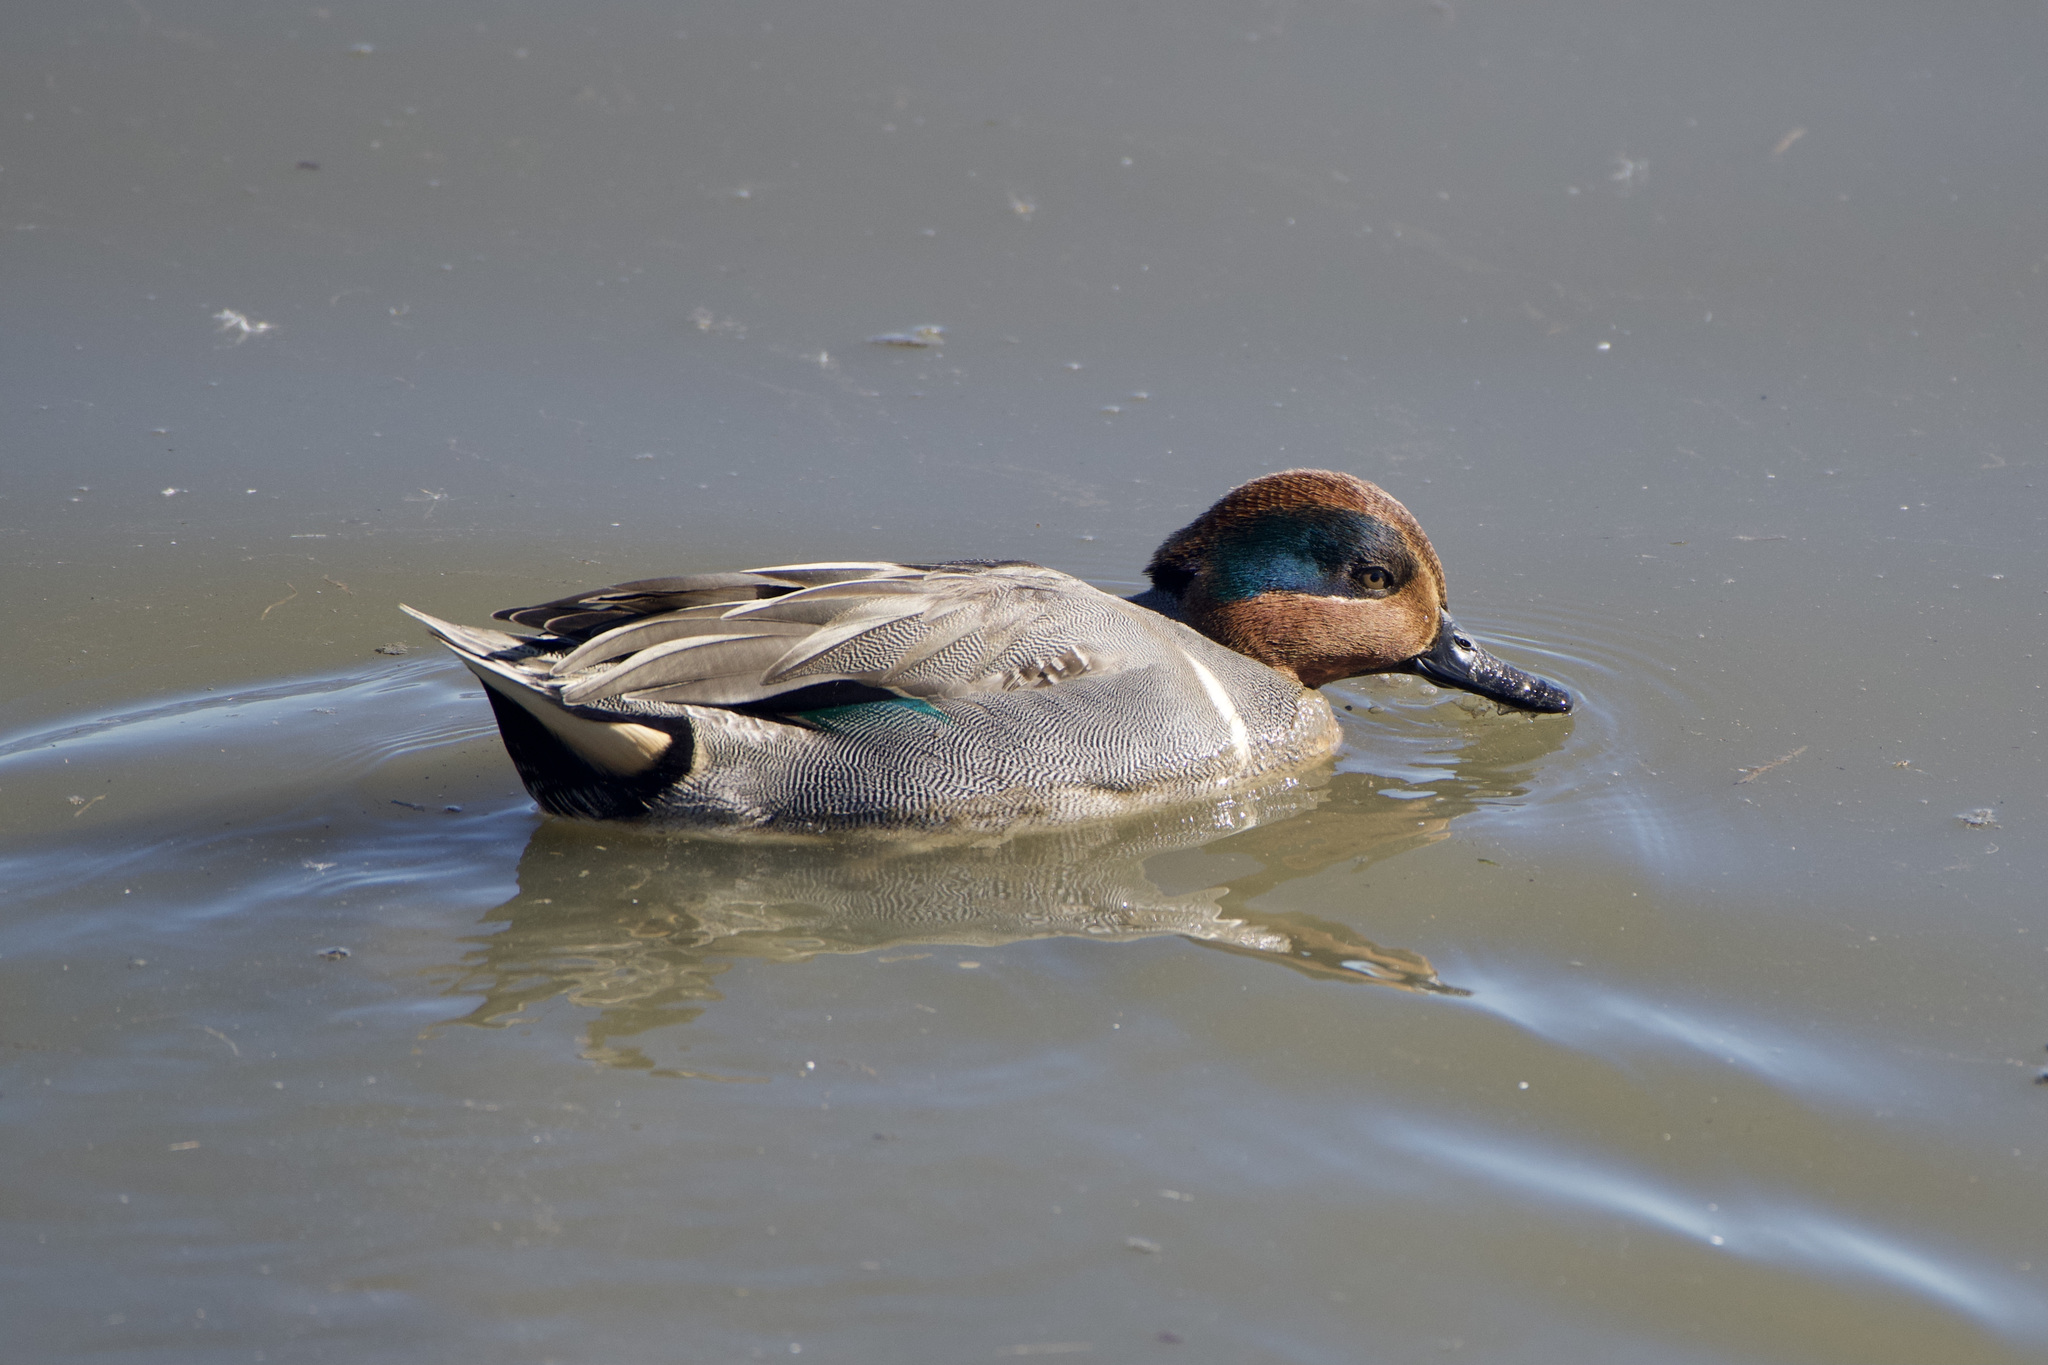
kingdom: Animalia
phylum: Chordata
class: Aves
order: Anseriformes
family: Anatidae
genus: Anas
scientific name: Anas carolinensis
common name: Green-winged teal
